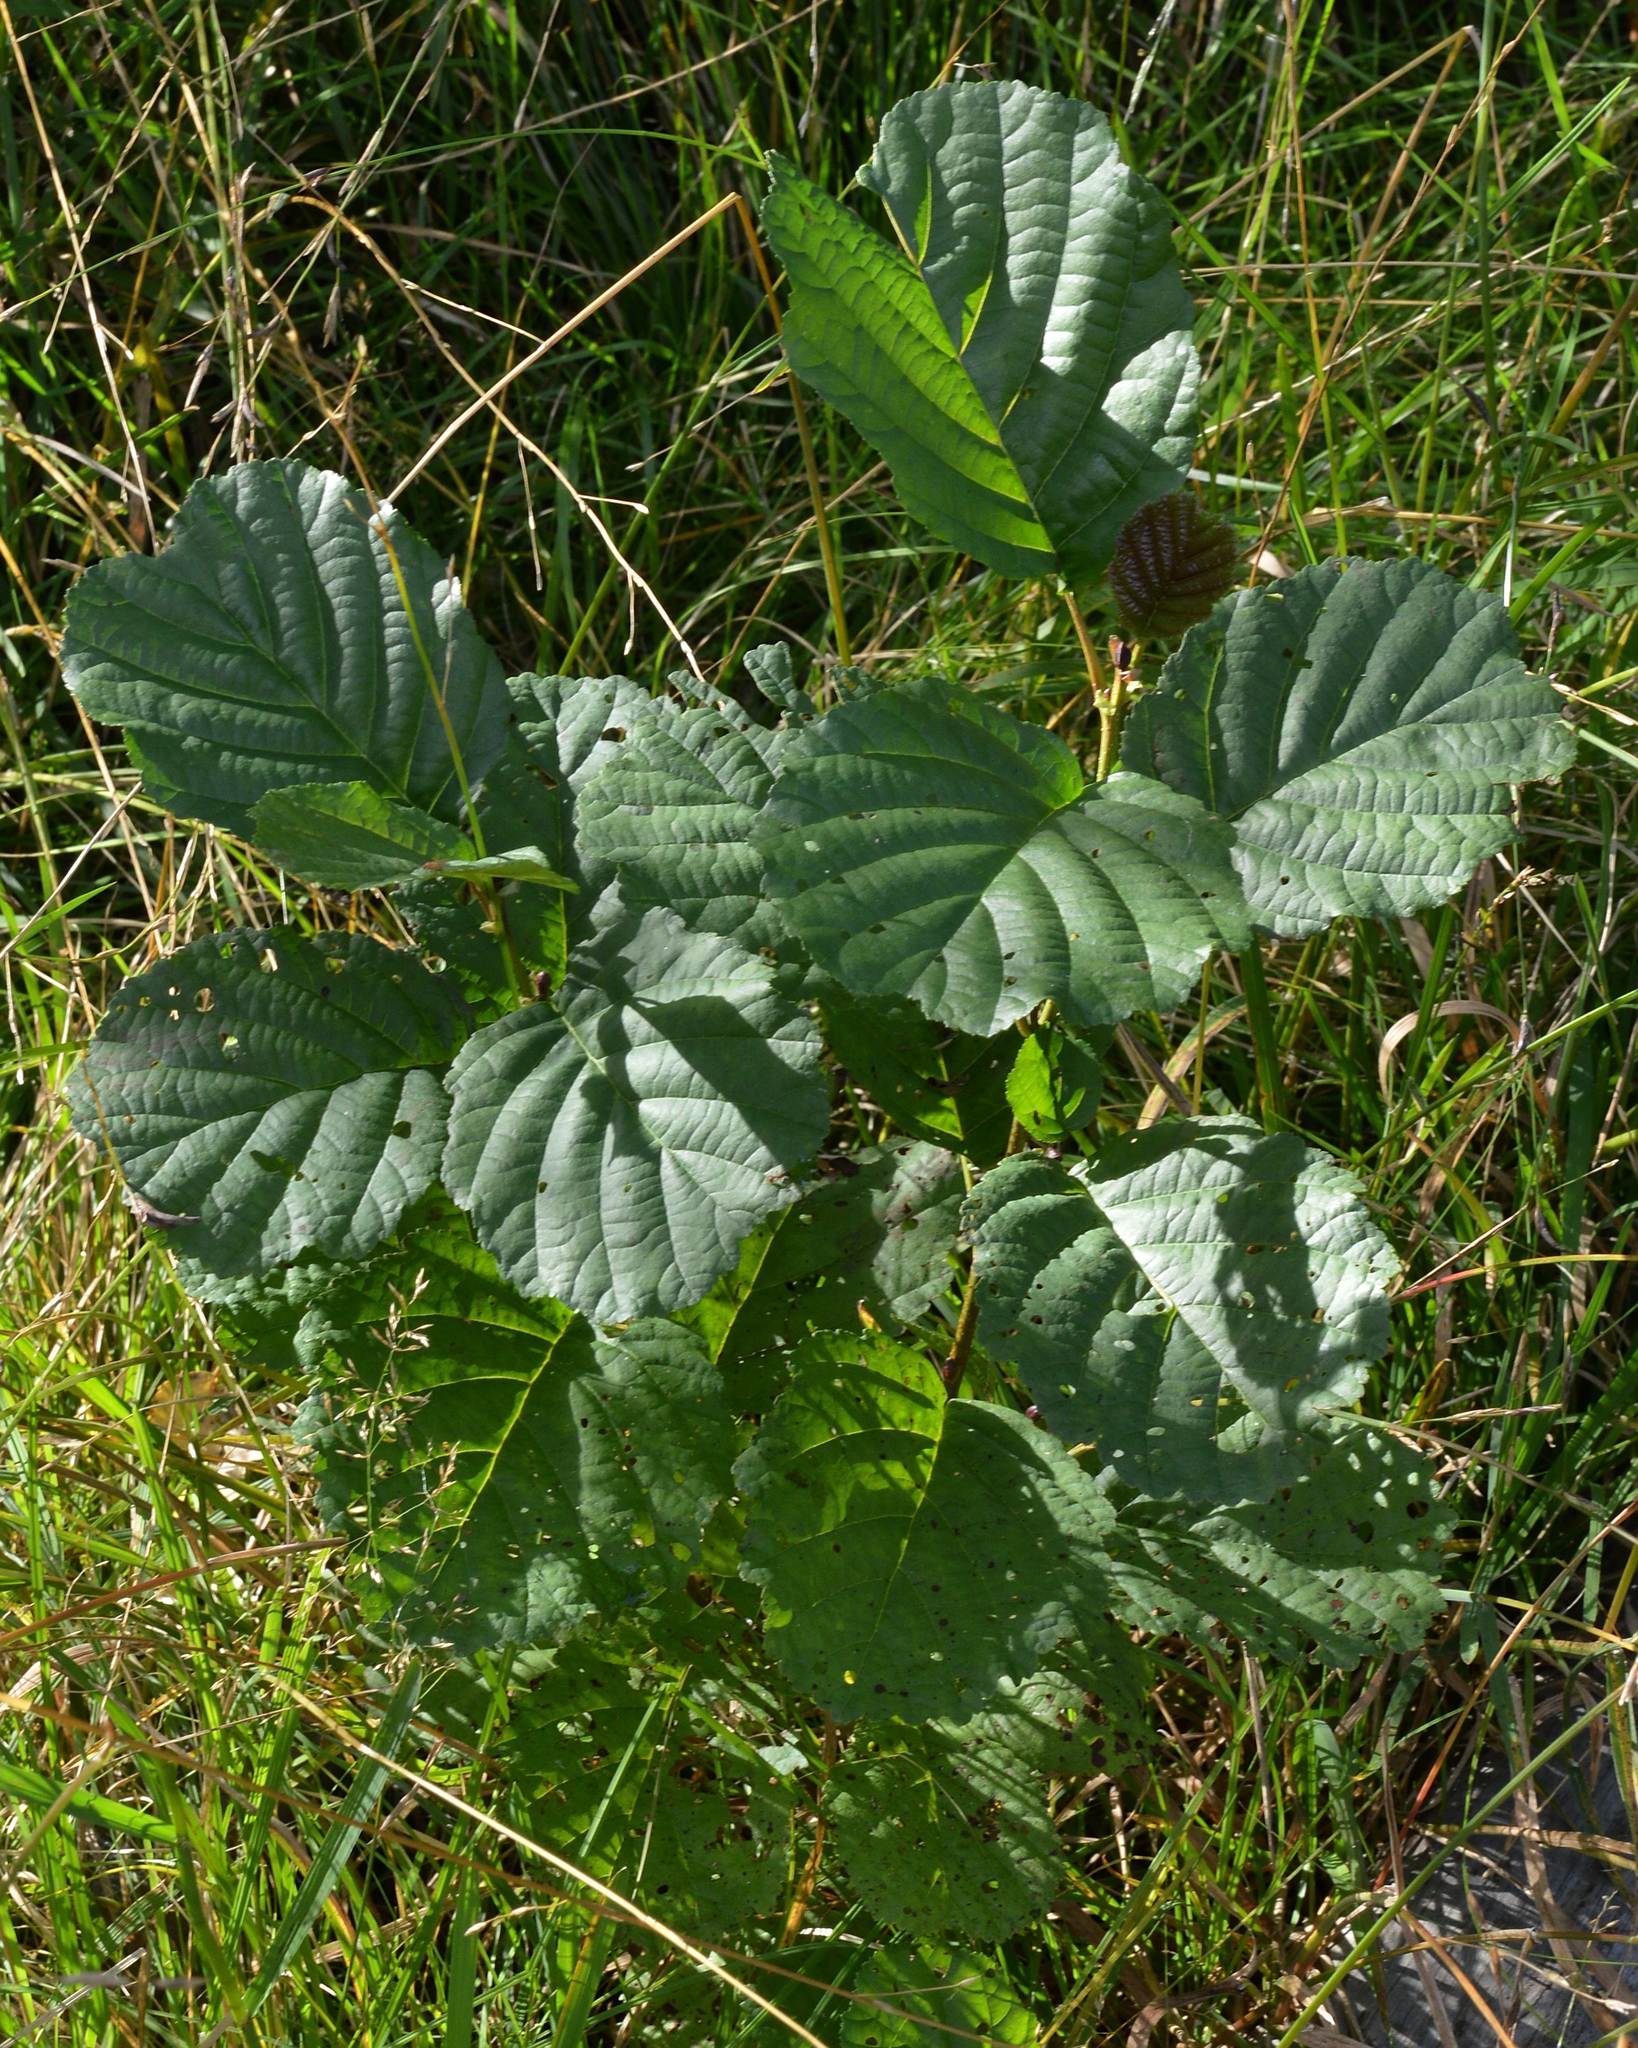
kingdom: Plantae
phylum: Tracheophyta
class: Magnoliopsida
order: Fagales
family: Betulaceae
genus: Alnus
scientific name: Alnus glutinosa
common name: Black alder
